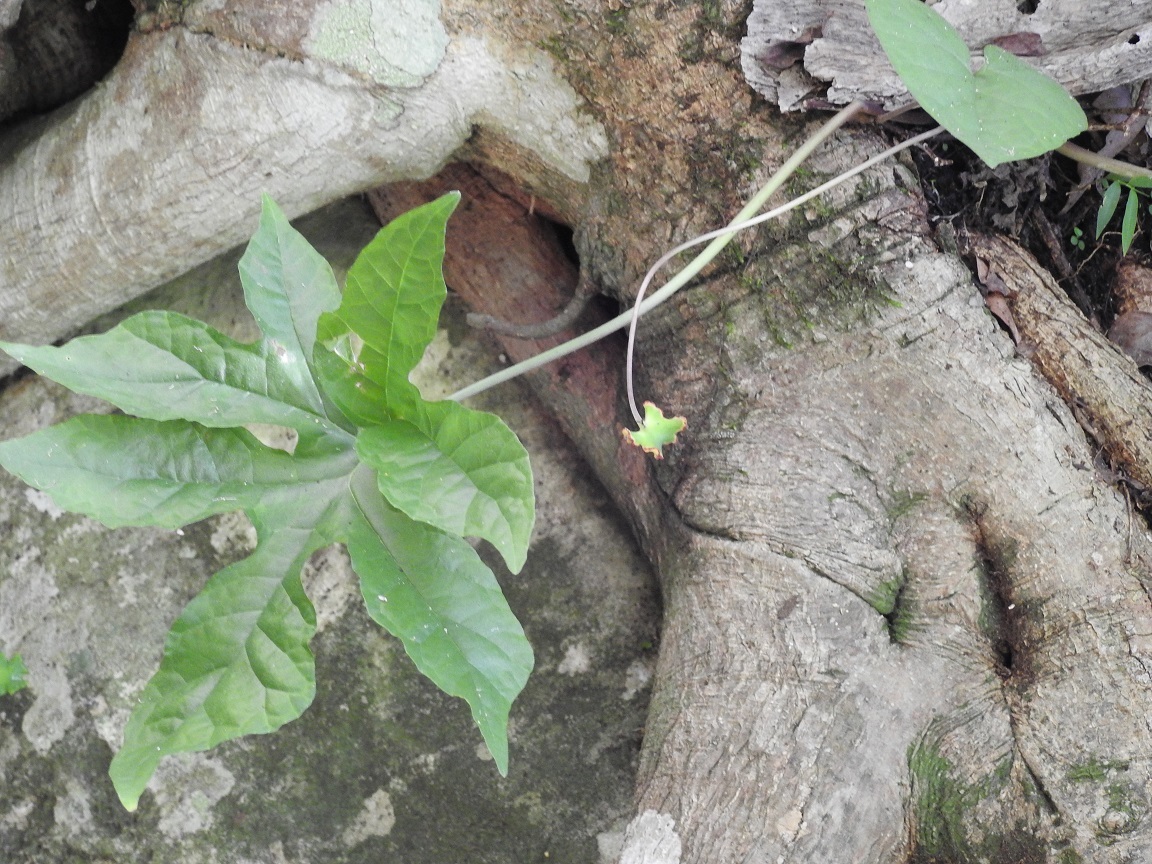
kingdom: Plantae
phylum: Tracheophyta
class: Magnoliopsida
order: Rosales
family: Moraceae
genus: Dorstenia
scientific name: Dorstenia contrajerva
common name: Tusilla
